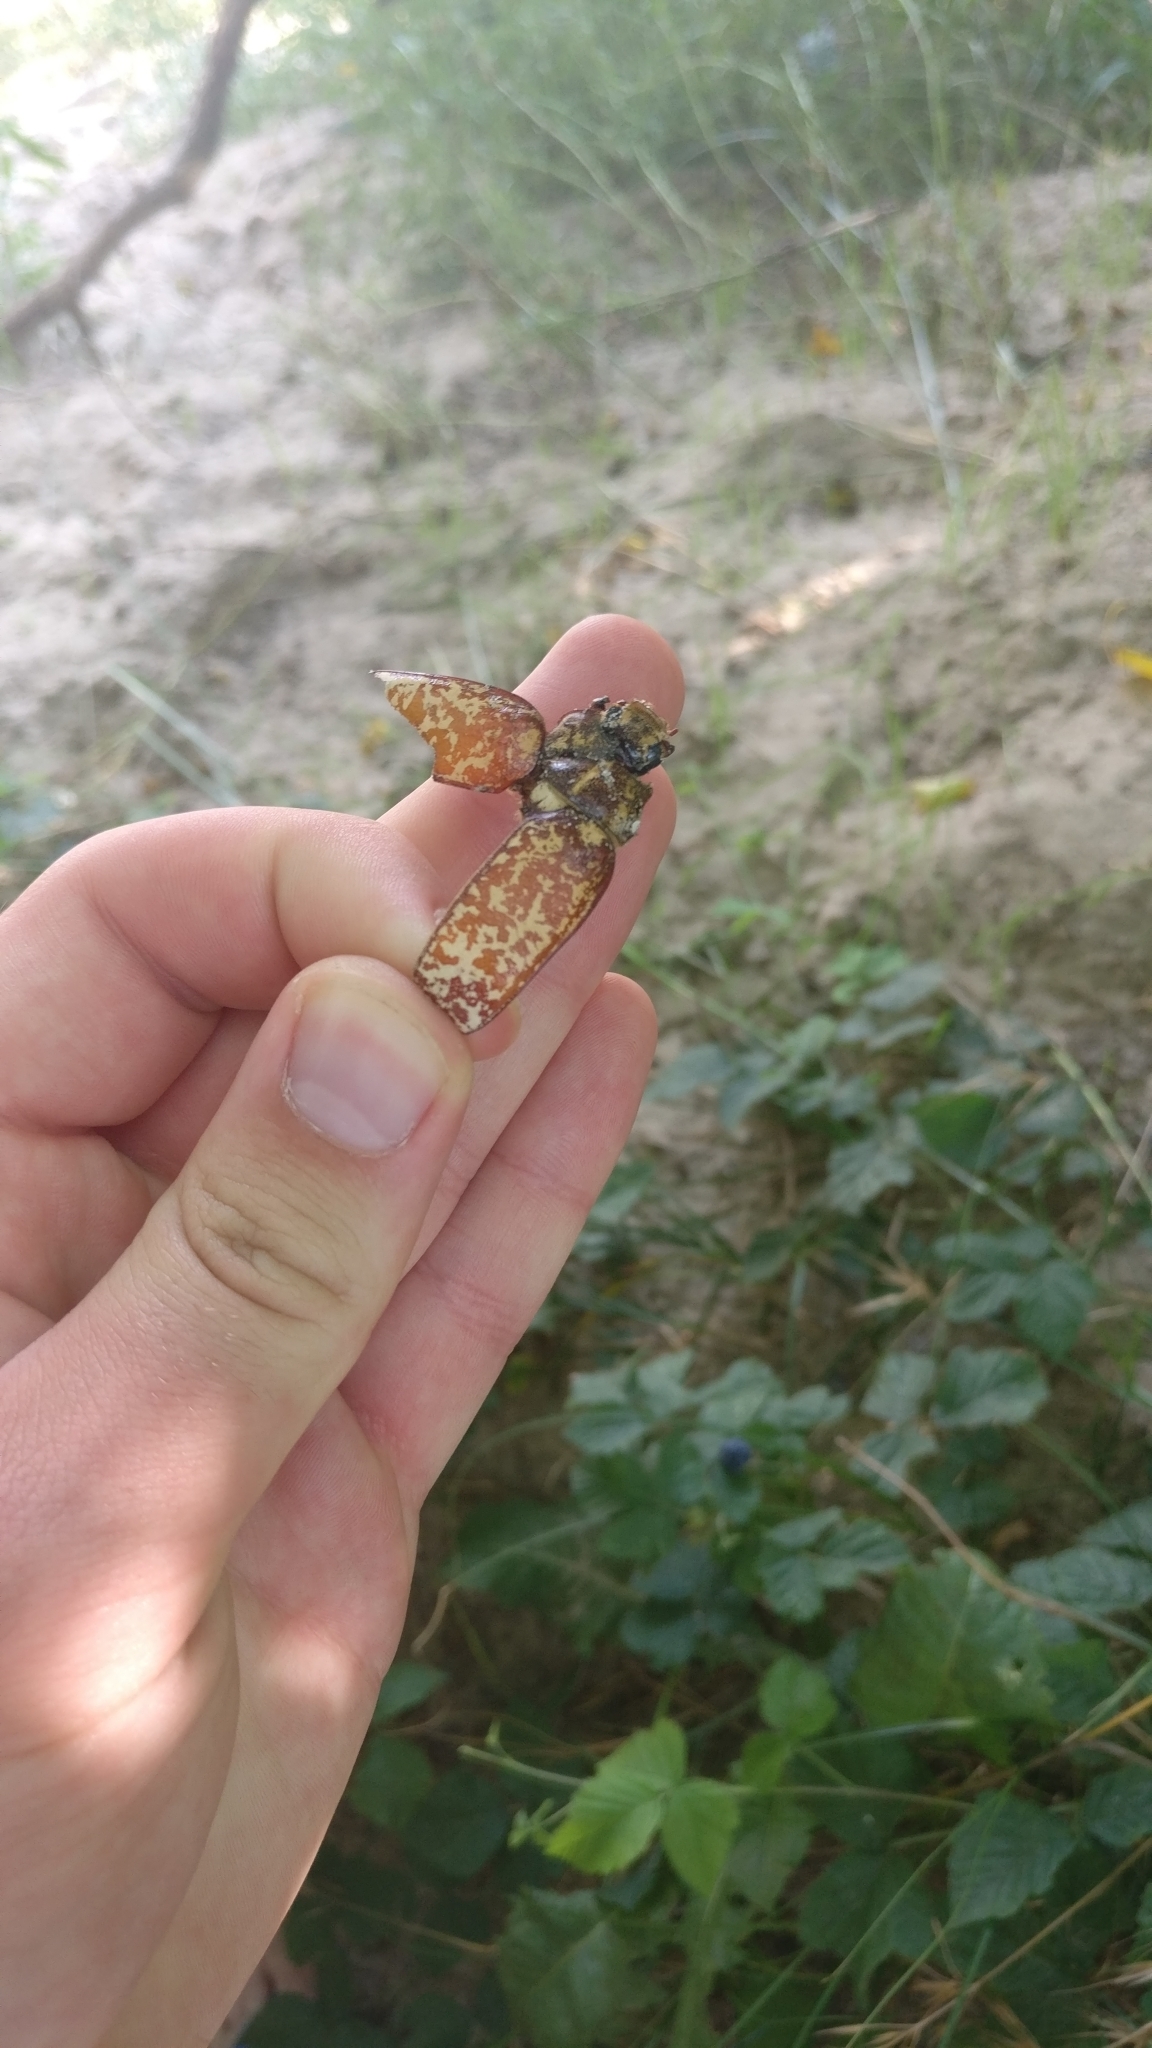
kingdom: Animalia
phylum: Arthropoda
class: Insecta
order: Coleoptera
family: Scarabaeidae
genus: Polyphylla
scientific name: Polyphylla fullo
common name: Pine chafer
